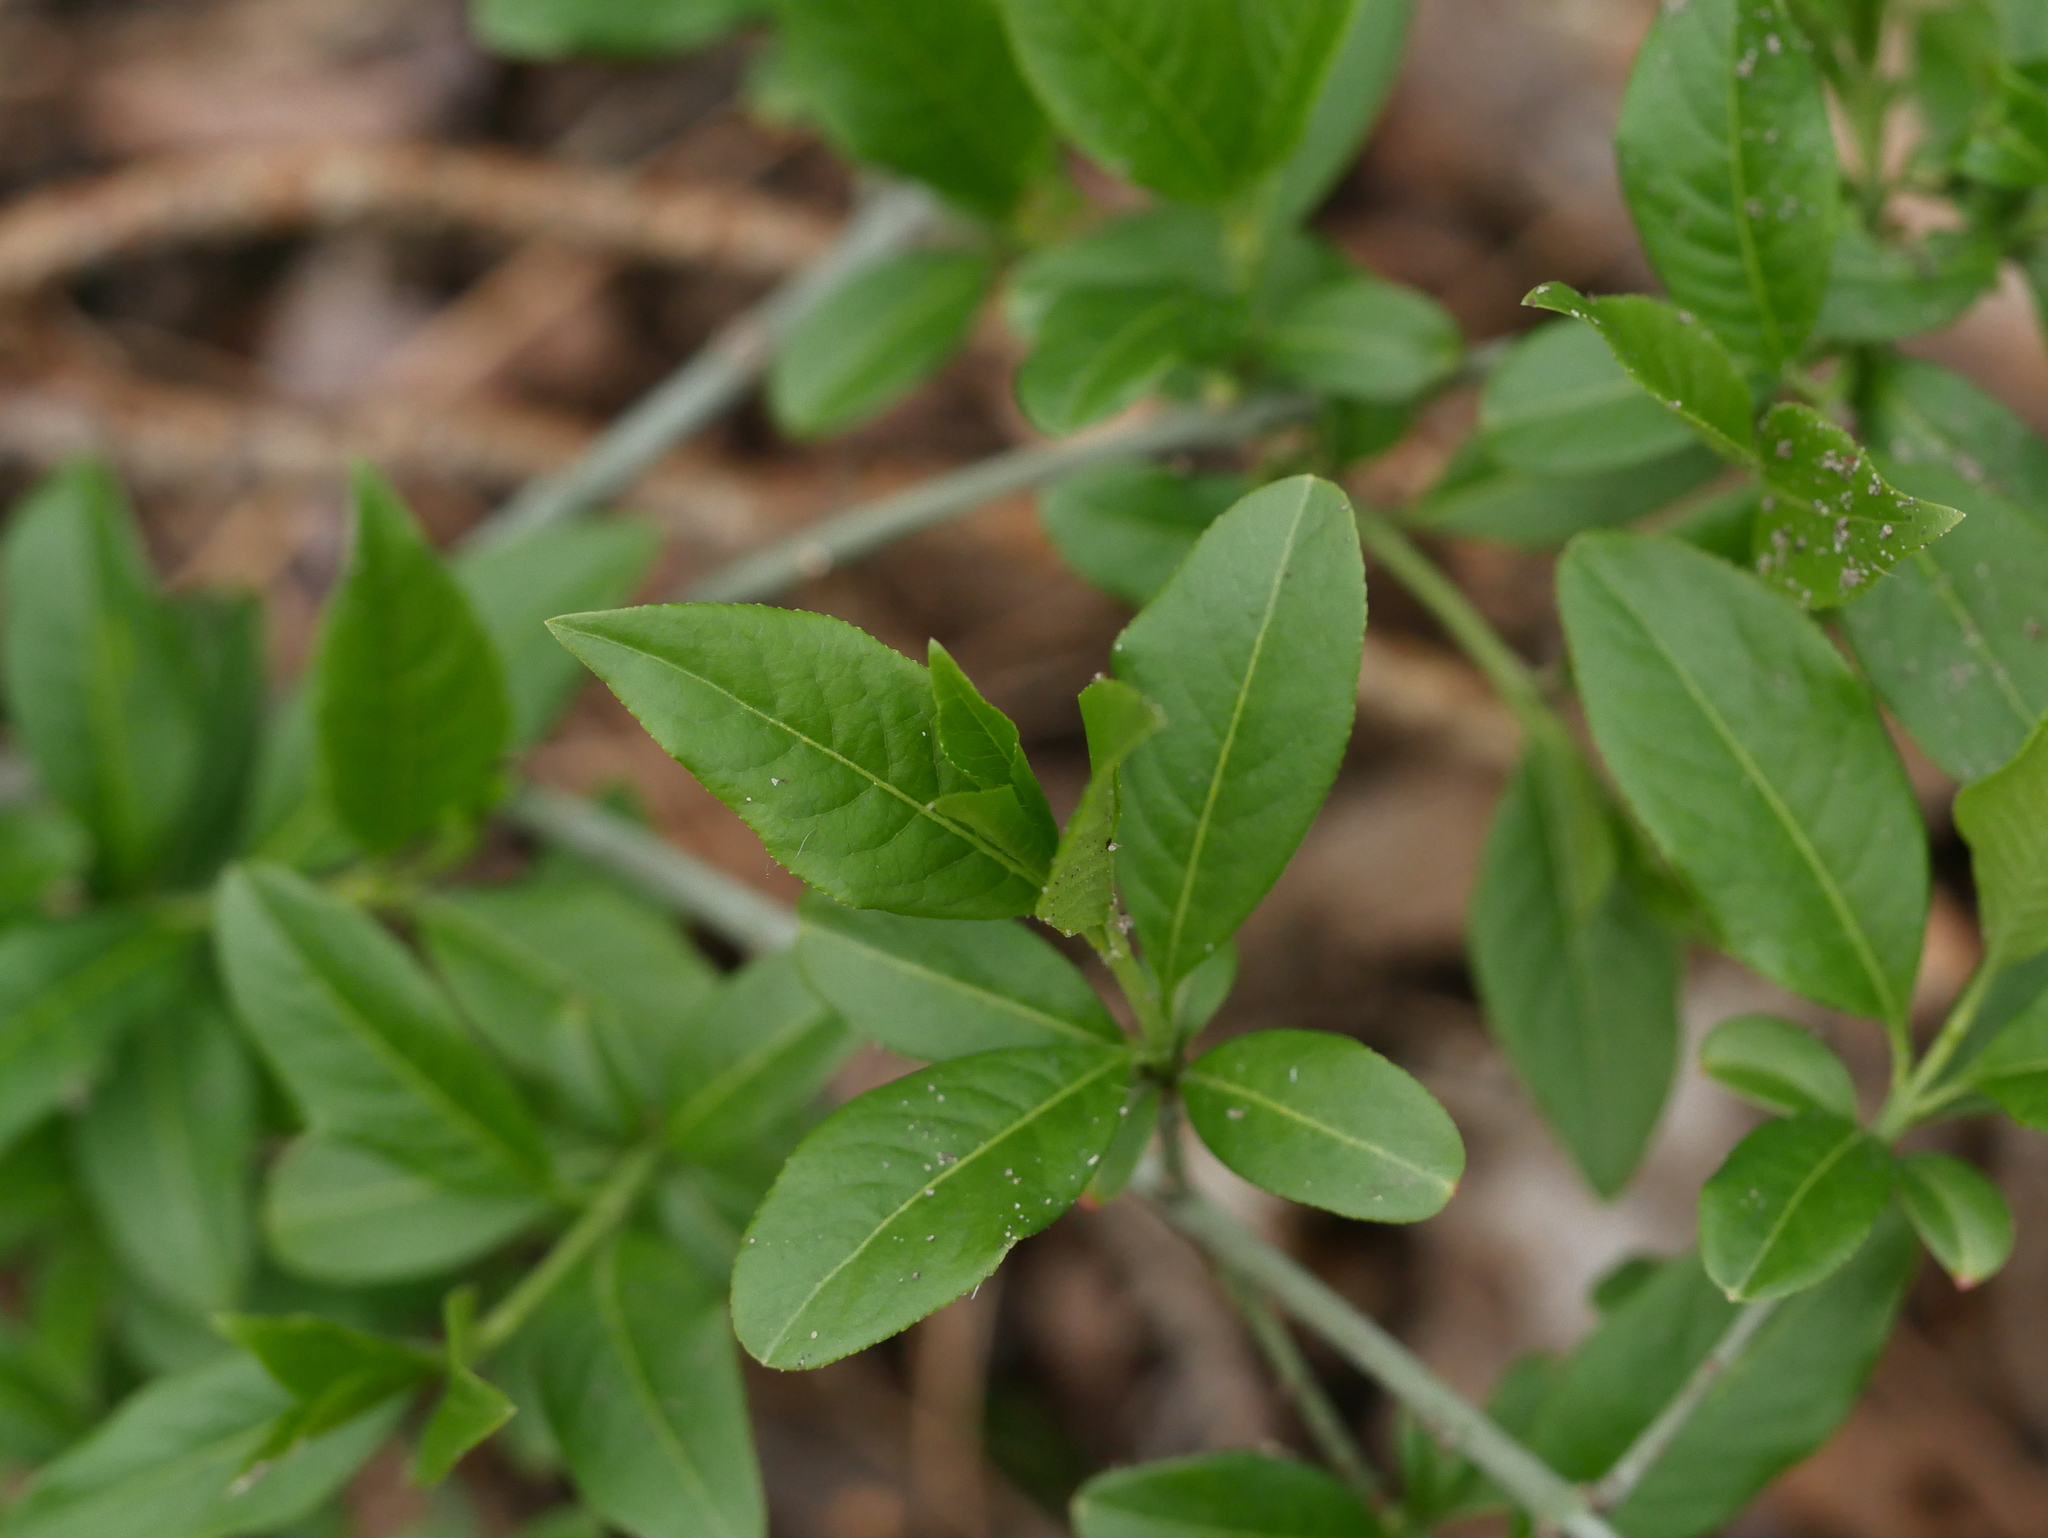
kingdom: Plantae
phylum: Tracheophyta
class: Magnoliopsida
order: Celastrales
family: Celastraceae
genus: Euonymus
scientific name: Euonymus europaeus
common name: Spindle
